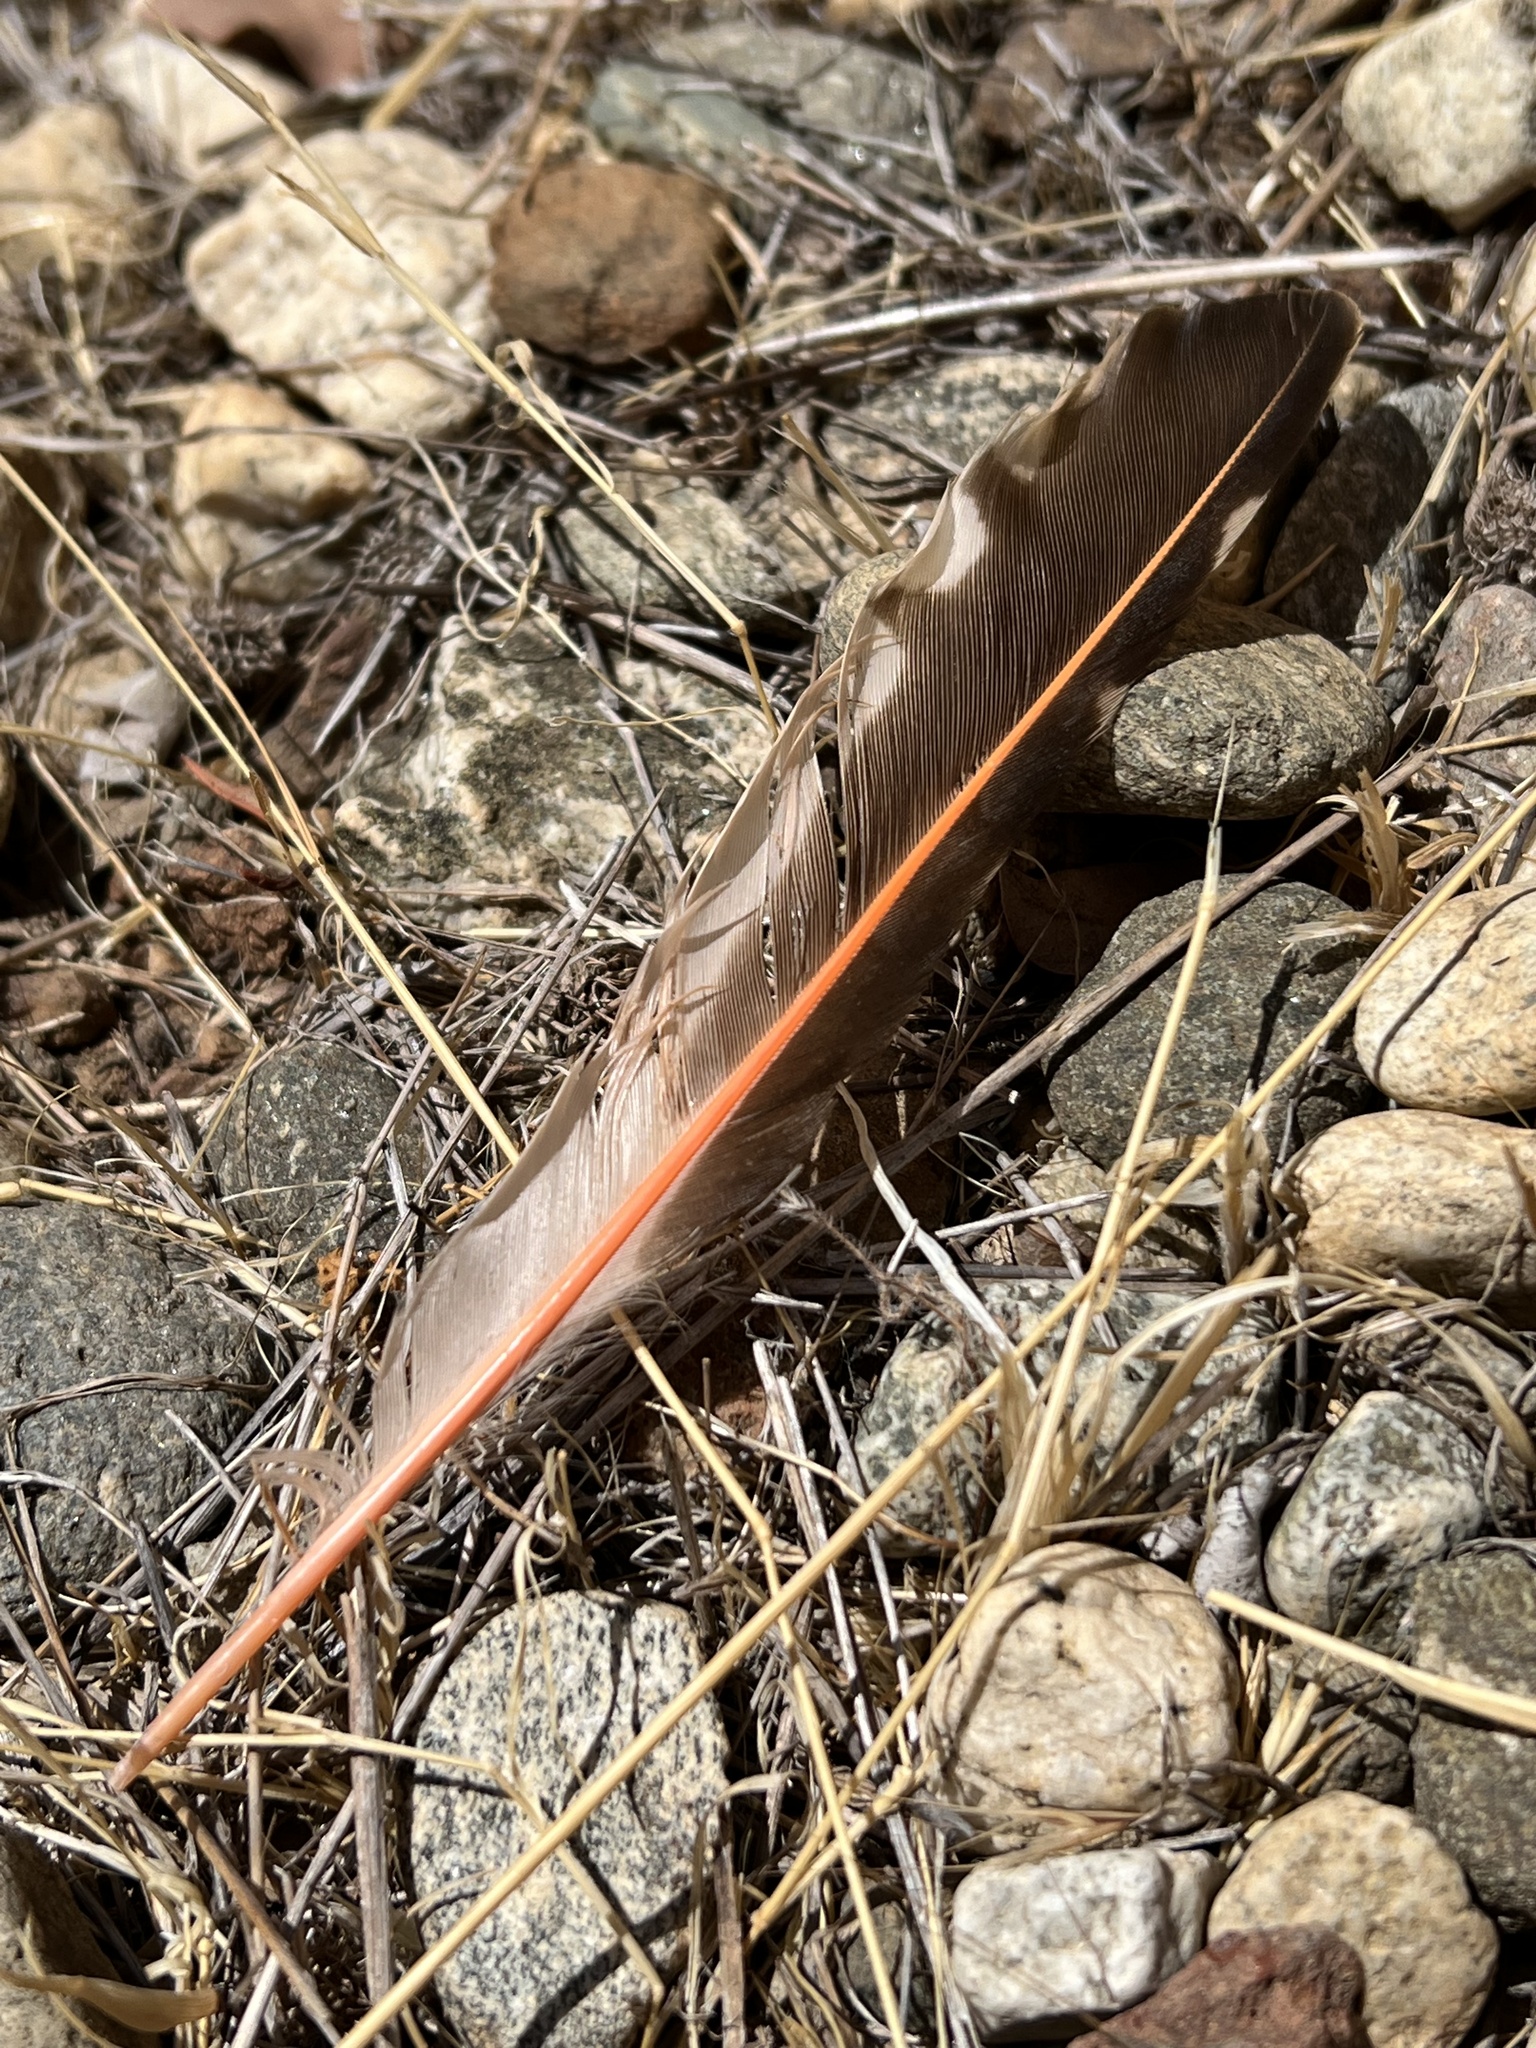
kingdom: Animalia
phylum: Chordata
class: Aves
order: Piciformes
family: Picidae
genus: Colaptes
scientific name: Colaptes auratus
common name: Northern flicker
